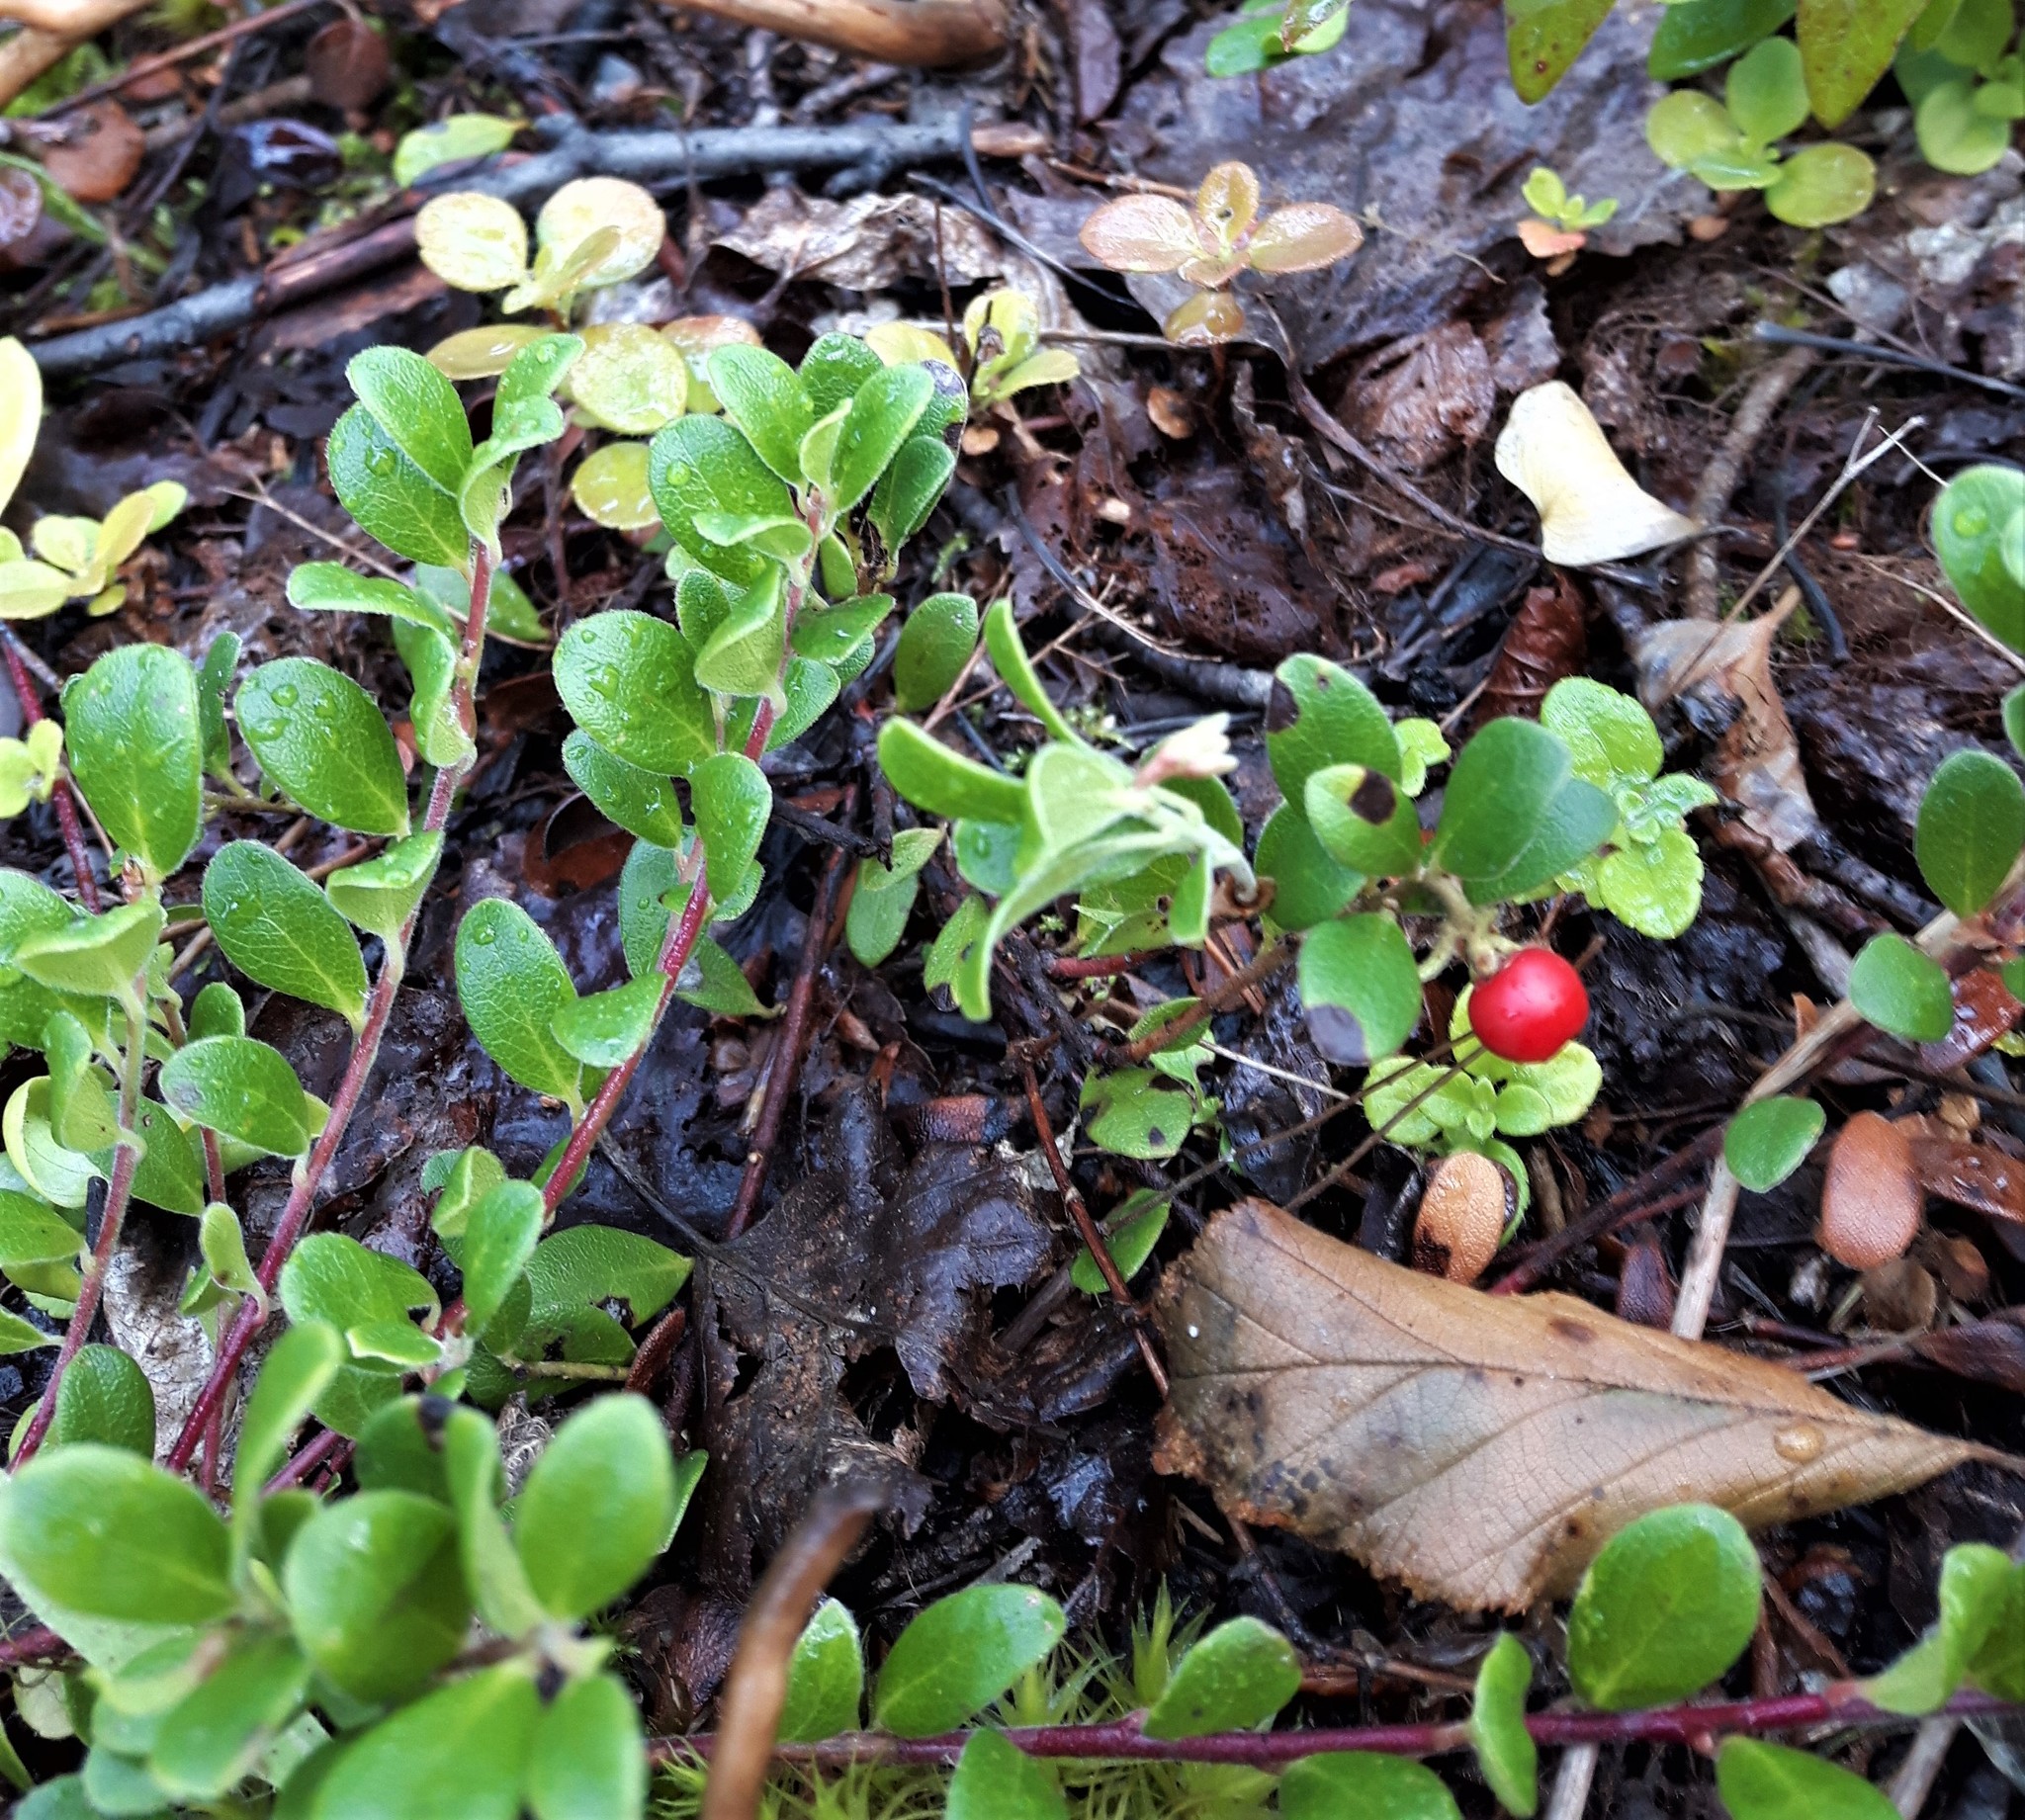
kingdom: Plantae
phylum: Tracheophyta
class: Magnoliopsida
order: Ericales
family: Ericaceae
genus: Arctostaphylos
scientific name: Arctostaphylos uva-ursi
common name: Bearberry
